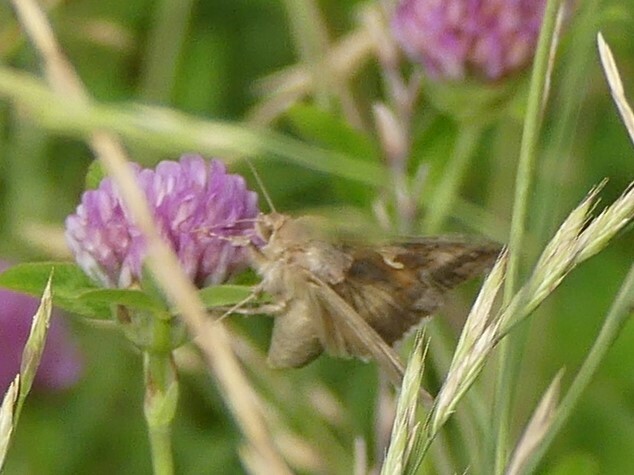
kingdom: Animalia
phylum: Arthropoda
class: Insecta
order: Lepidoptera
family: Noctuidae
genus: Autographa
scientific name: Autographa gamma
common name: Silver y
